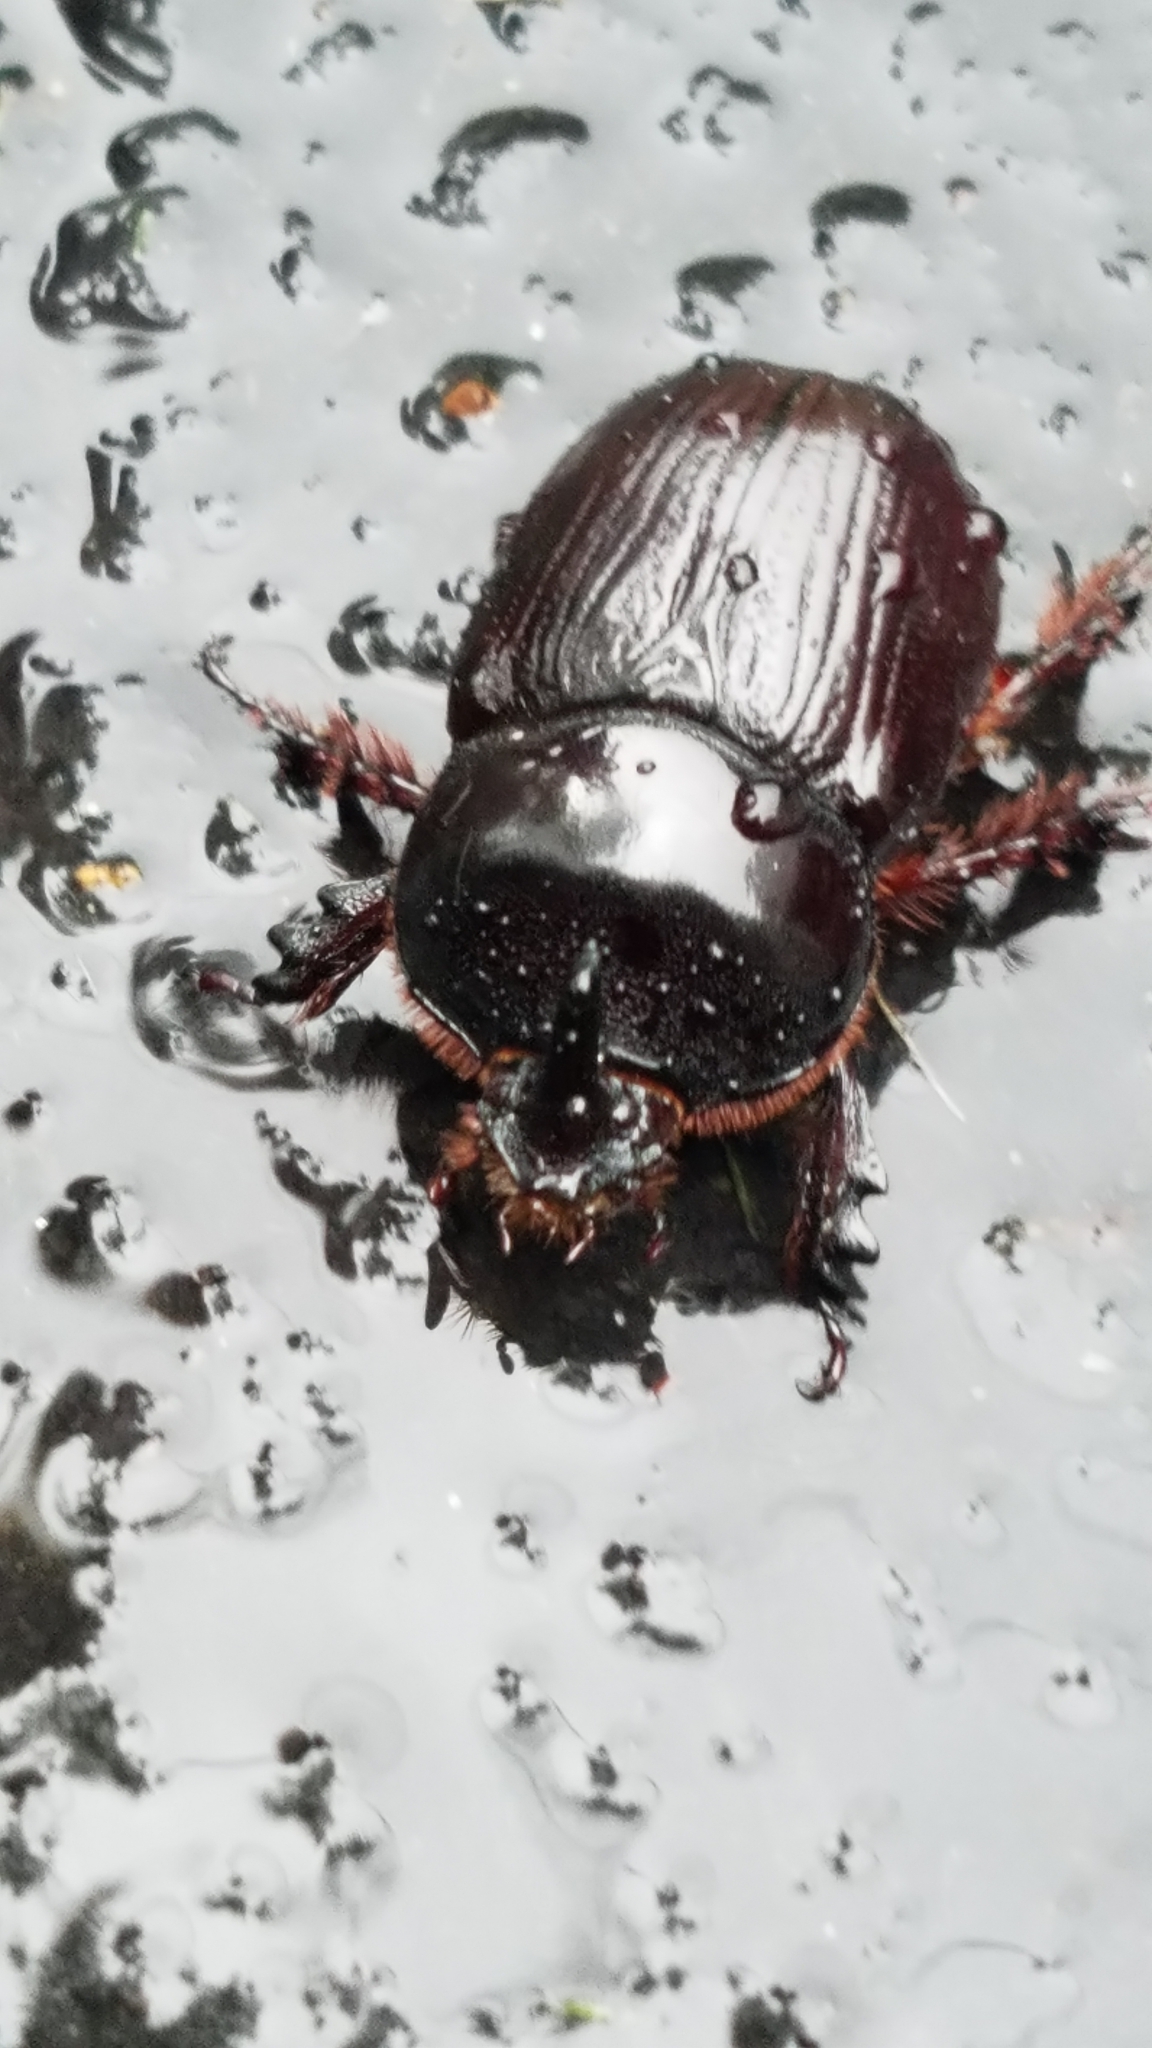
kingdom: Animalia
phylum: Arthropoda
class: Insecta
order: Coleoptera
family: Scarabaeidae
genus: Xyloryctes
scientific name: Xyloryctes jamaicensis
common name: Eastern rhinoceros beetle
